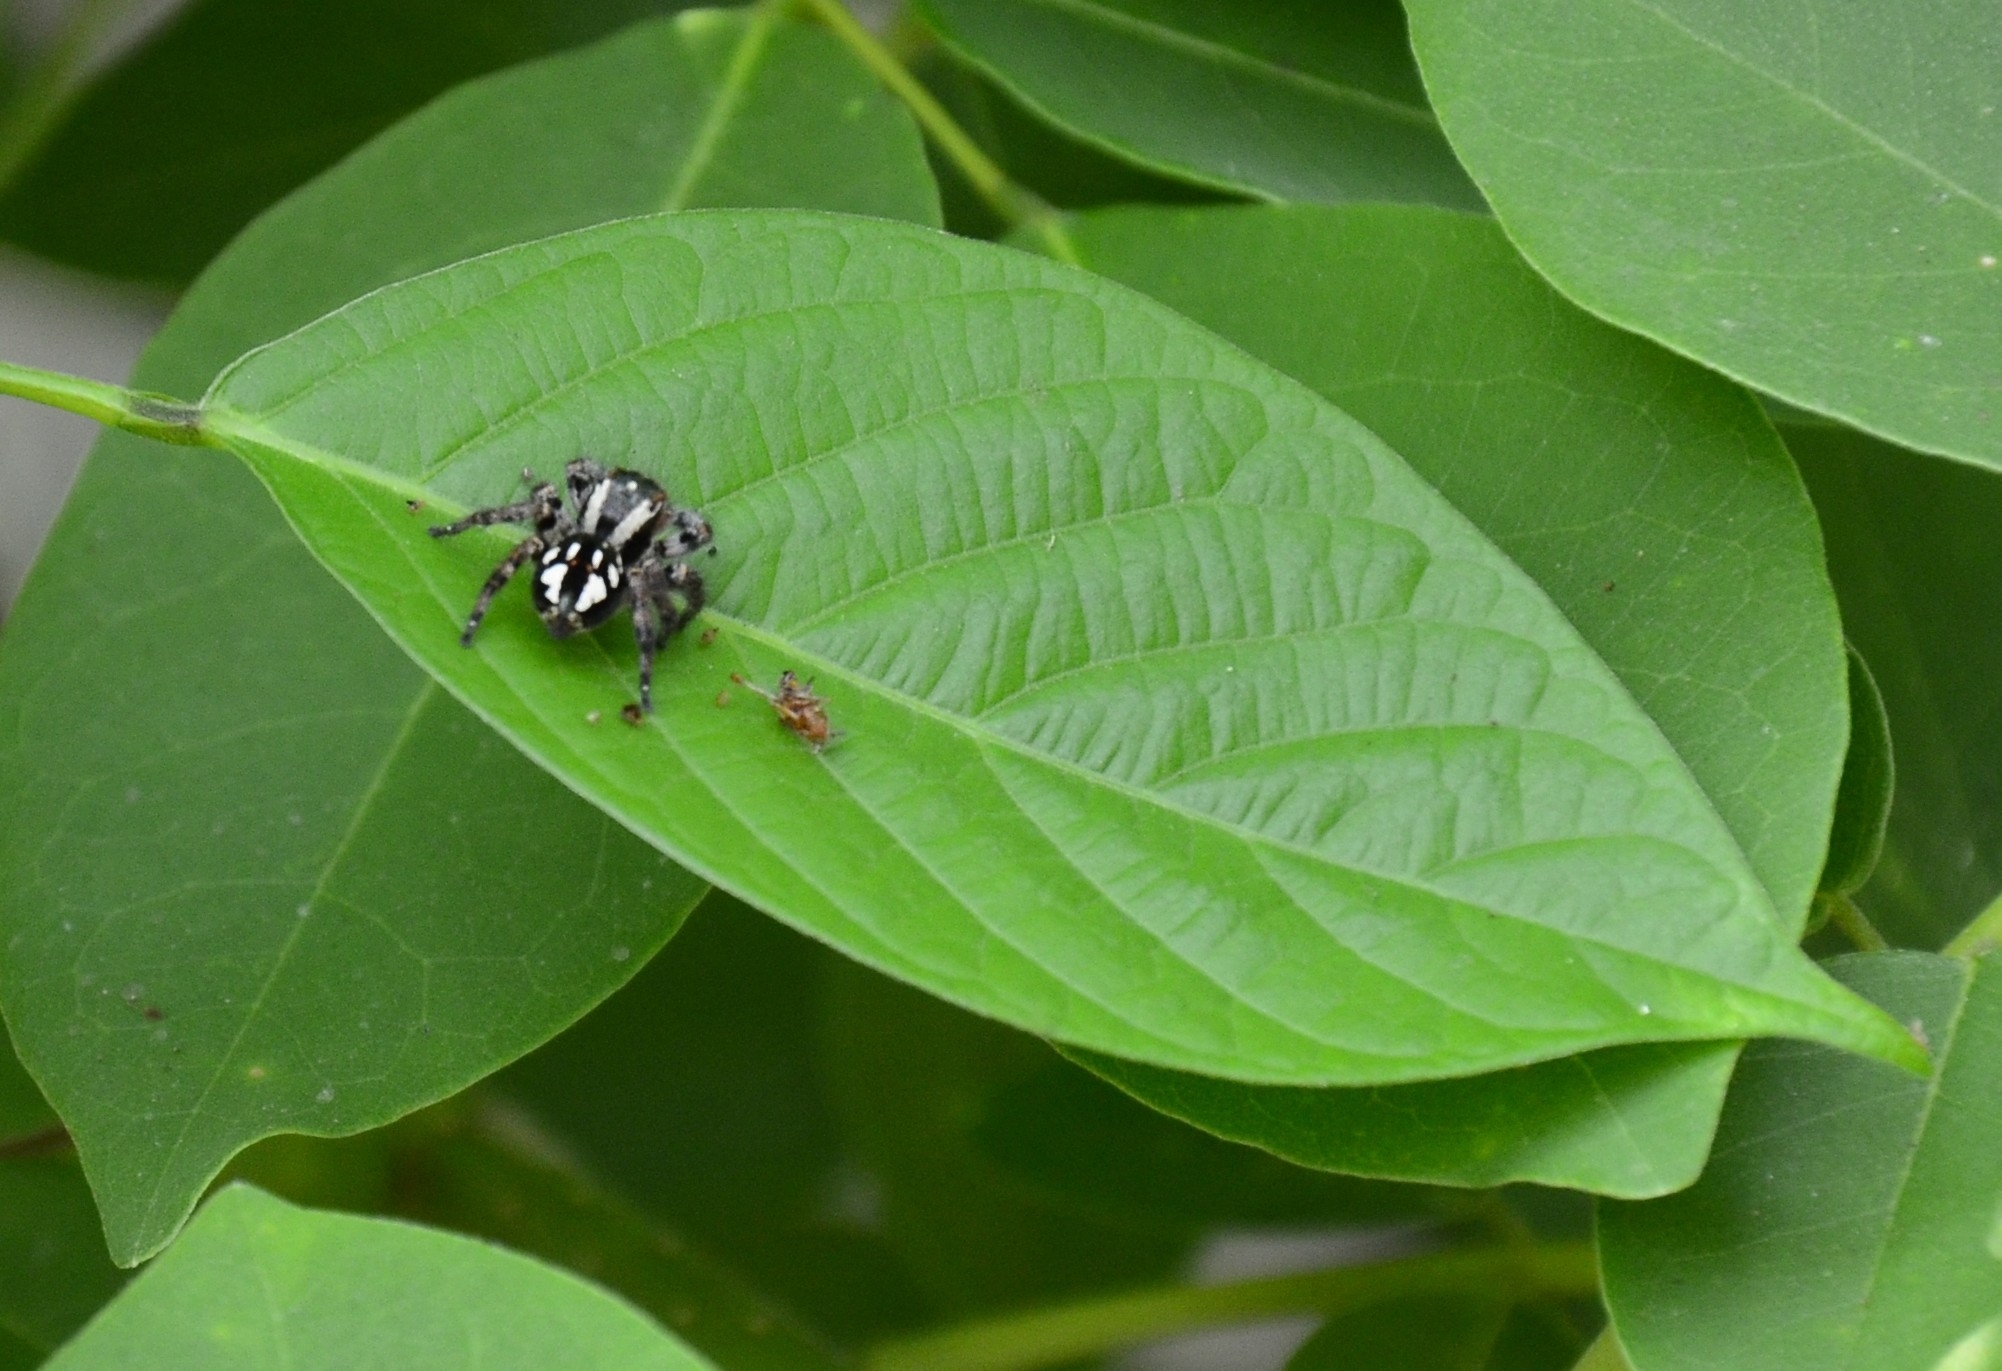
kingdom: Animalia
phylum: Arthropoda
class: Arachnida
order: Araneae
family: Salticidae
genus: Carrhotus
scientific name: Carrhotus viduus
